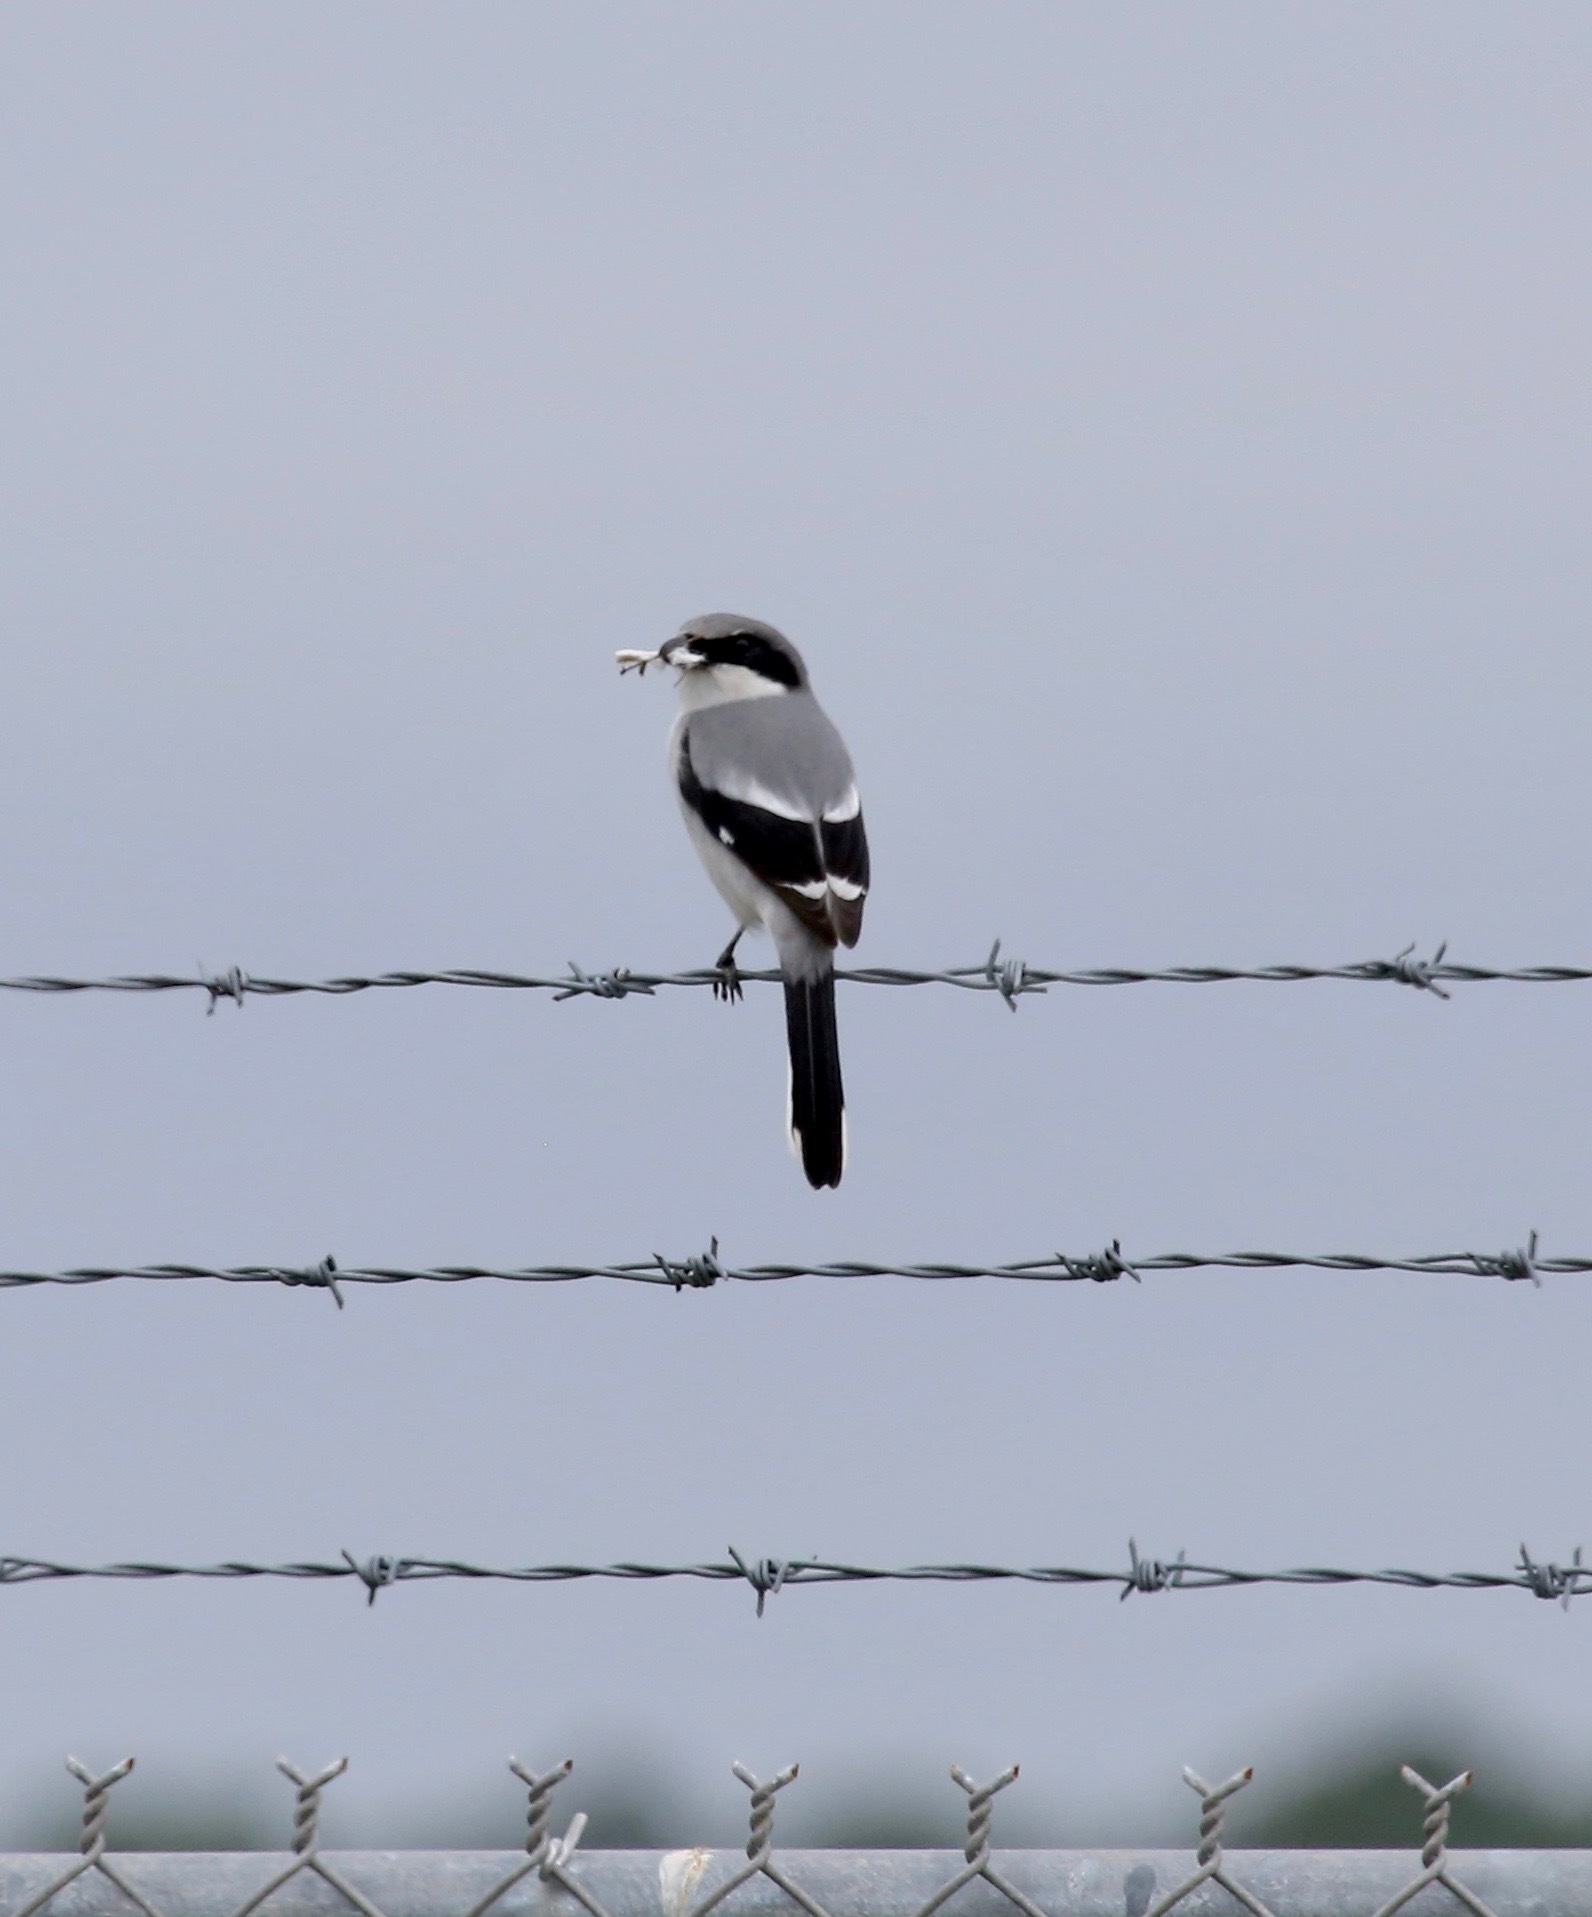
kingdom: Animalia
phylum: Chordata
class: Aves
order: Passeriformes
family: Laniidae
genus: Lanius
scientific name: Lanius ludovicianus
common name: Loggerhead shrike
